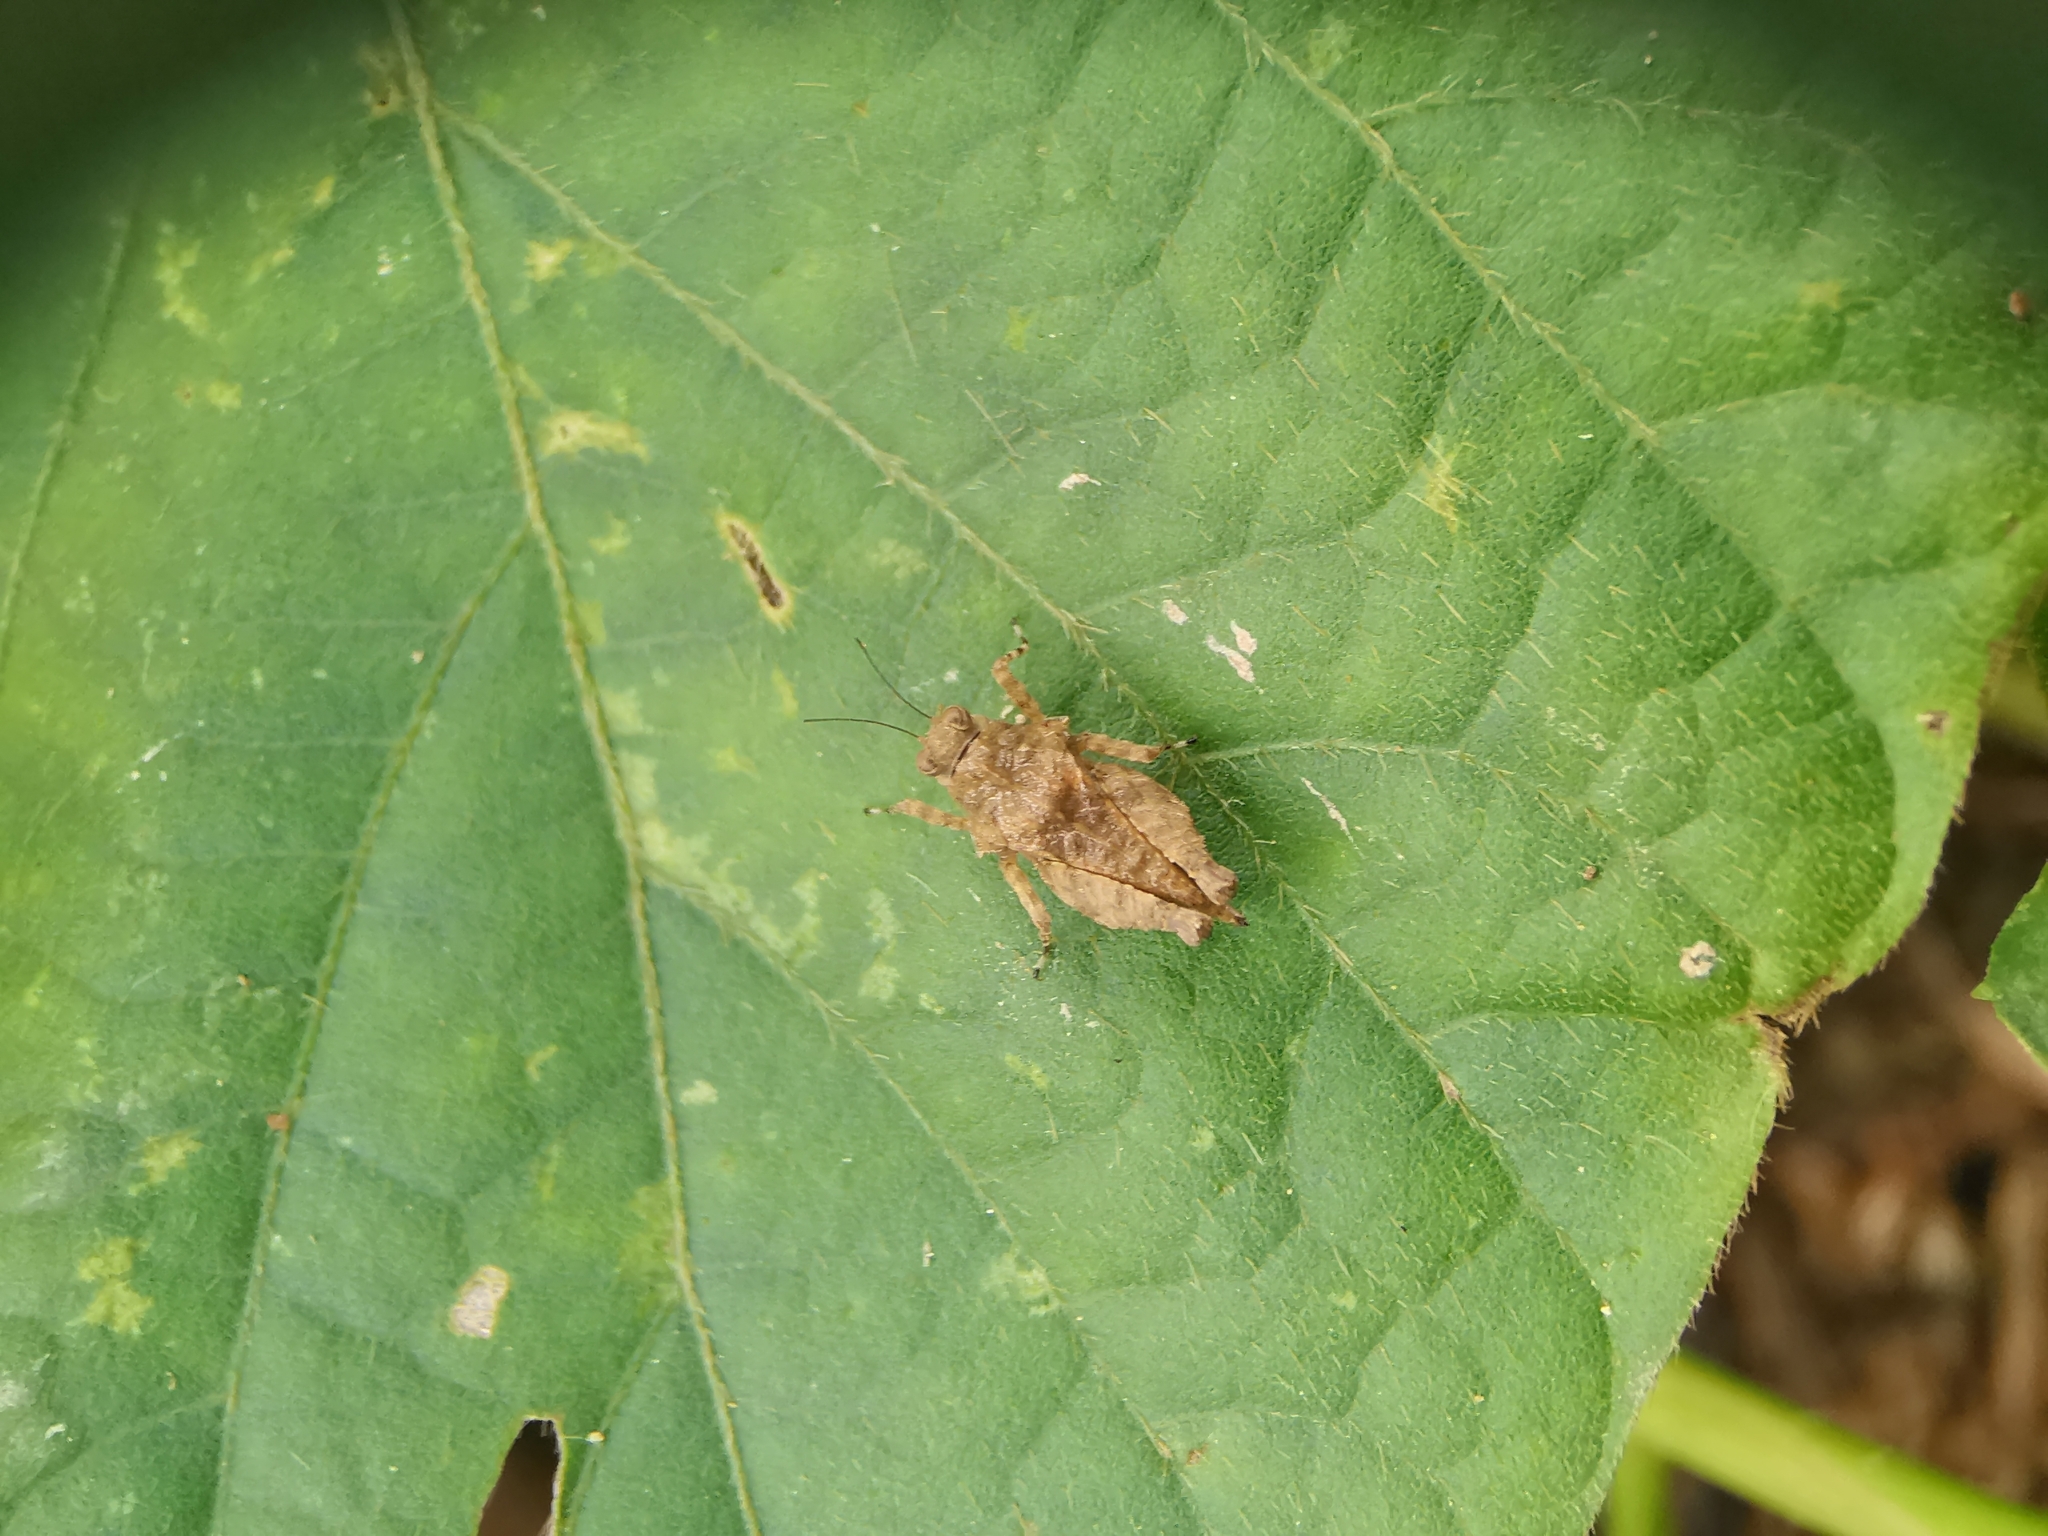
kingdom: Animalia
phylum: Arthropoda
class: Insecta
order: Orthoptera
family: Tetrigidae
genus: Thoradonta
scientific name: Thoradonta nodulosa
